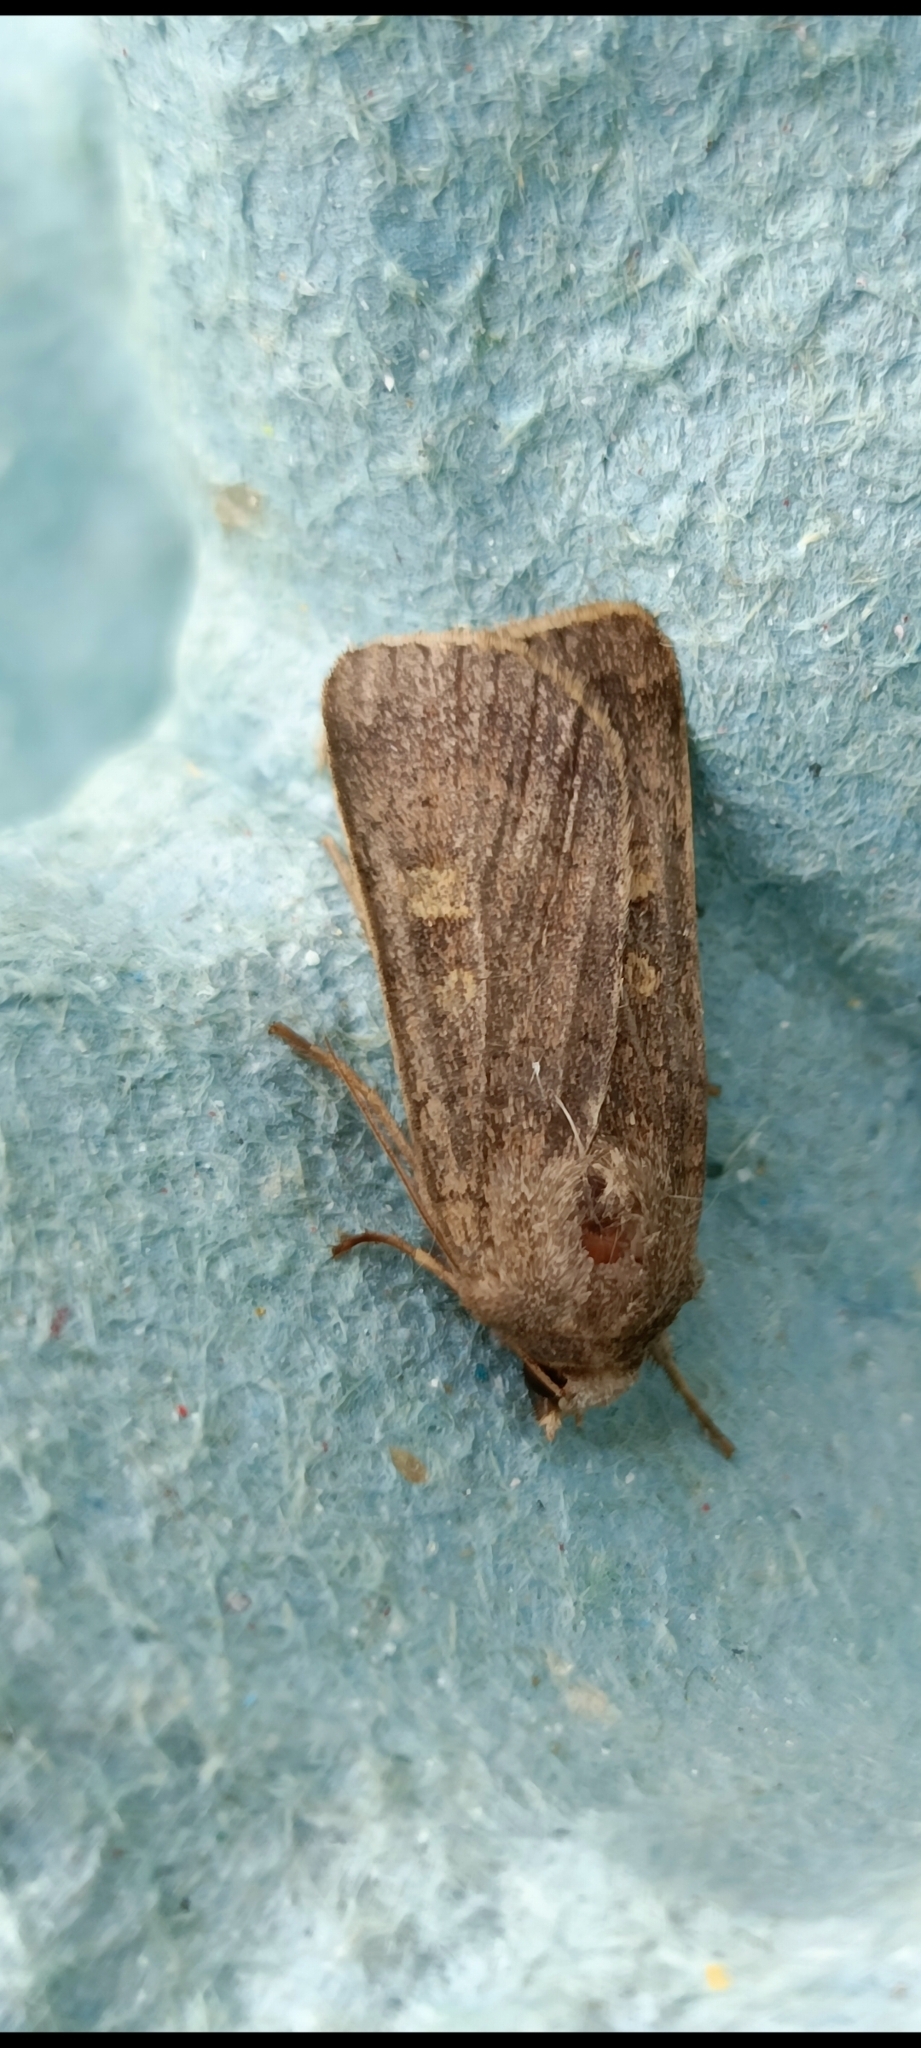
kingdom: Animalia
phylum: Arthropoda
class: Insecta
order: Lepidoptera
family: Noctuidae
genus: Xestia
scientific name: Xestia xanthographa
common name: Square-spot rustic
